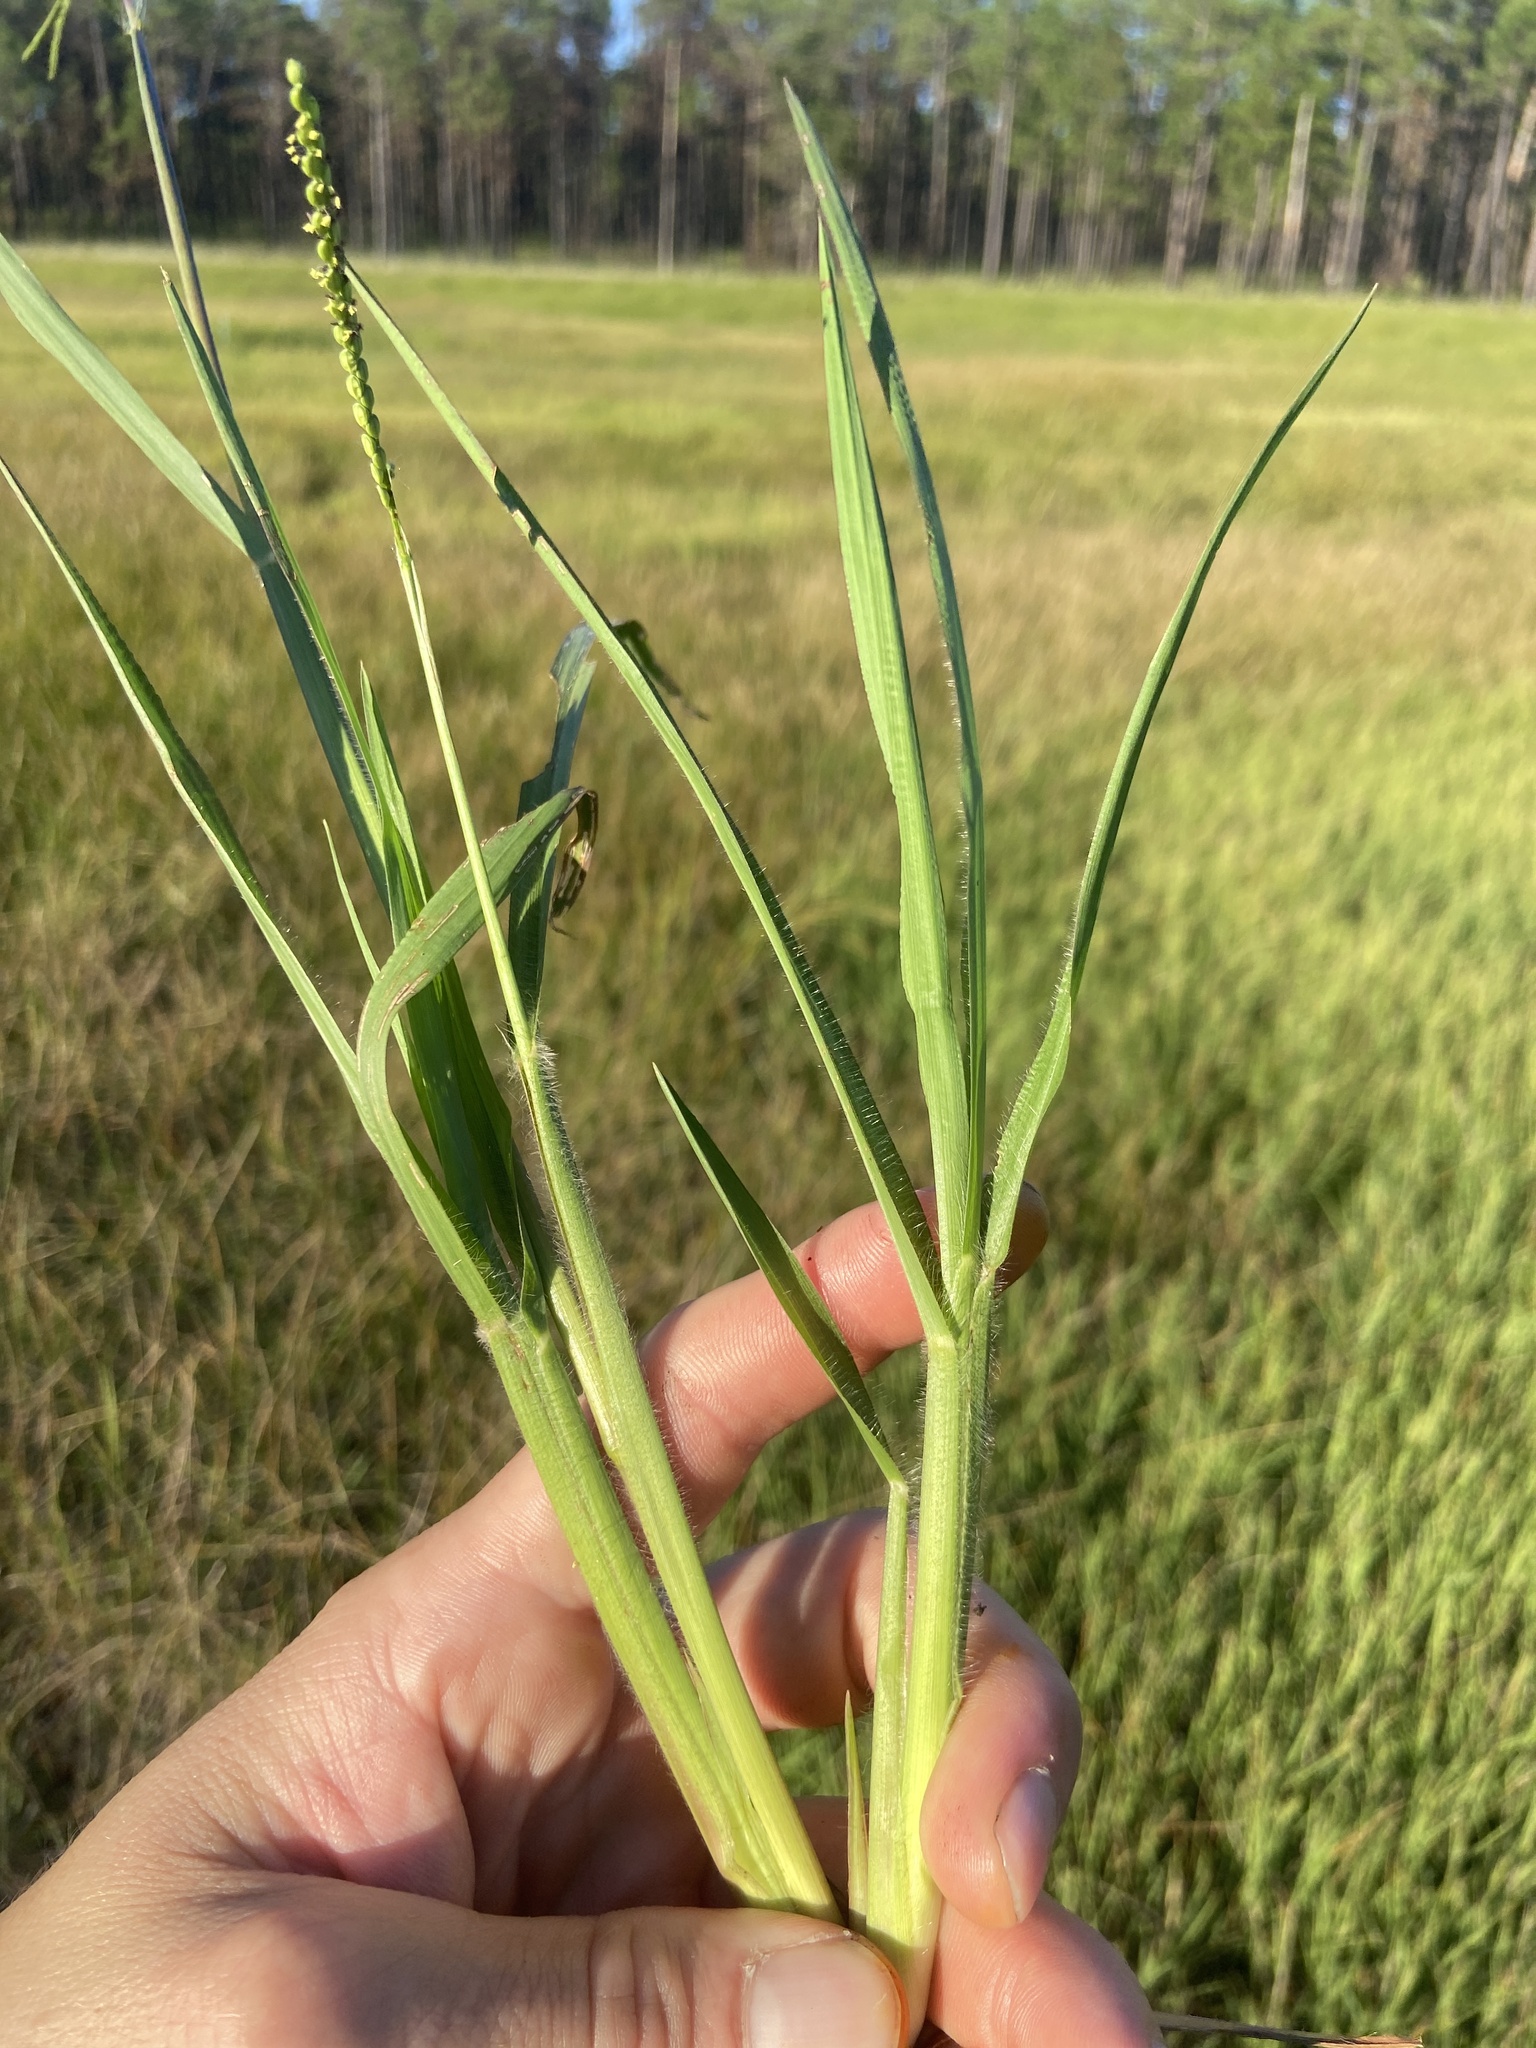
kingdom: Plantae
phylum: Tracheophyta
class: Liliopsida
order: Poales
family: Poaceae
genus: Paspalum
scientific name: Paspalum laeve
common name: Field paspalum
